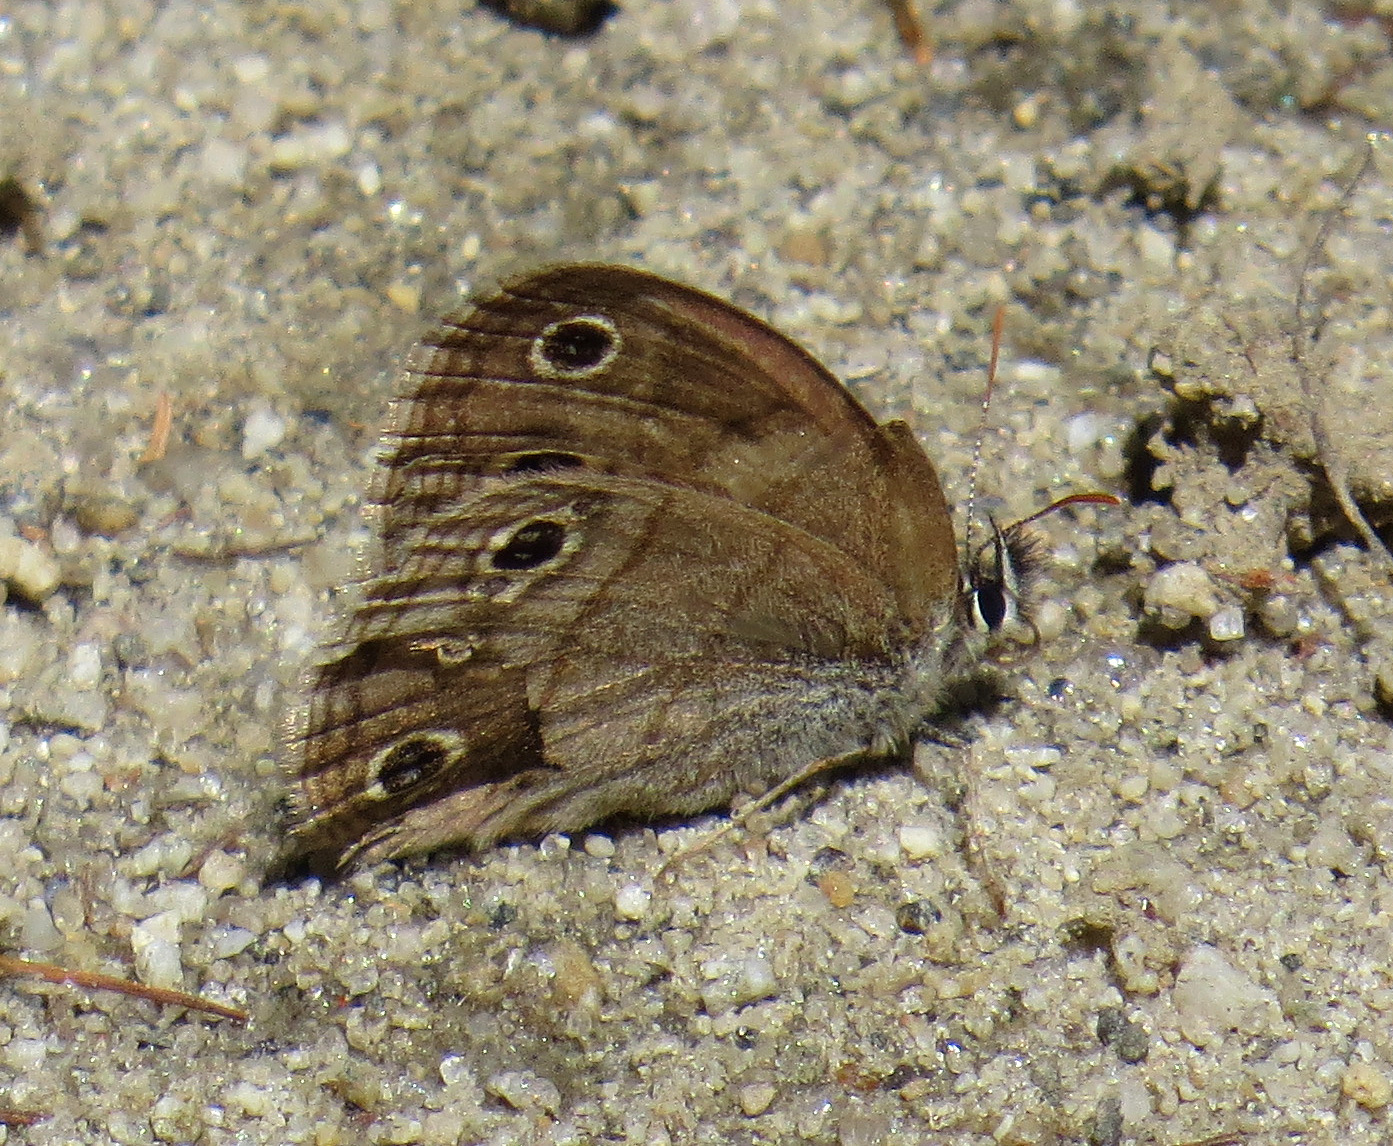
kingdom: Animalia
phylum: Arthropoda
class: Insecta
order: Lepidoptera
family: Nymphalidae
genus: Euptychia
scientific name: Euptychia cymela
